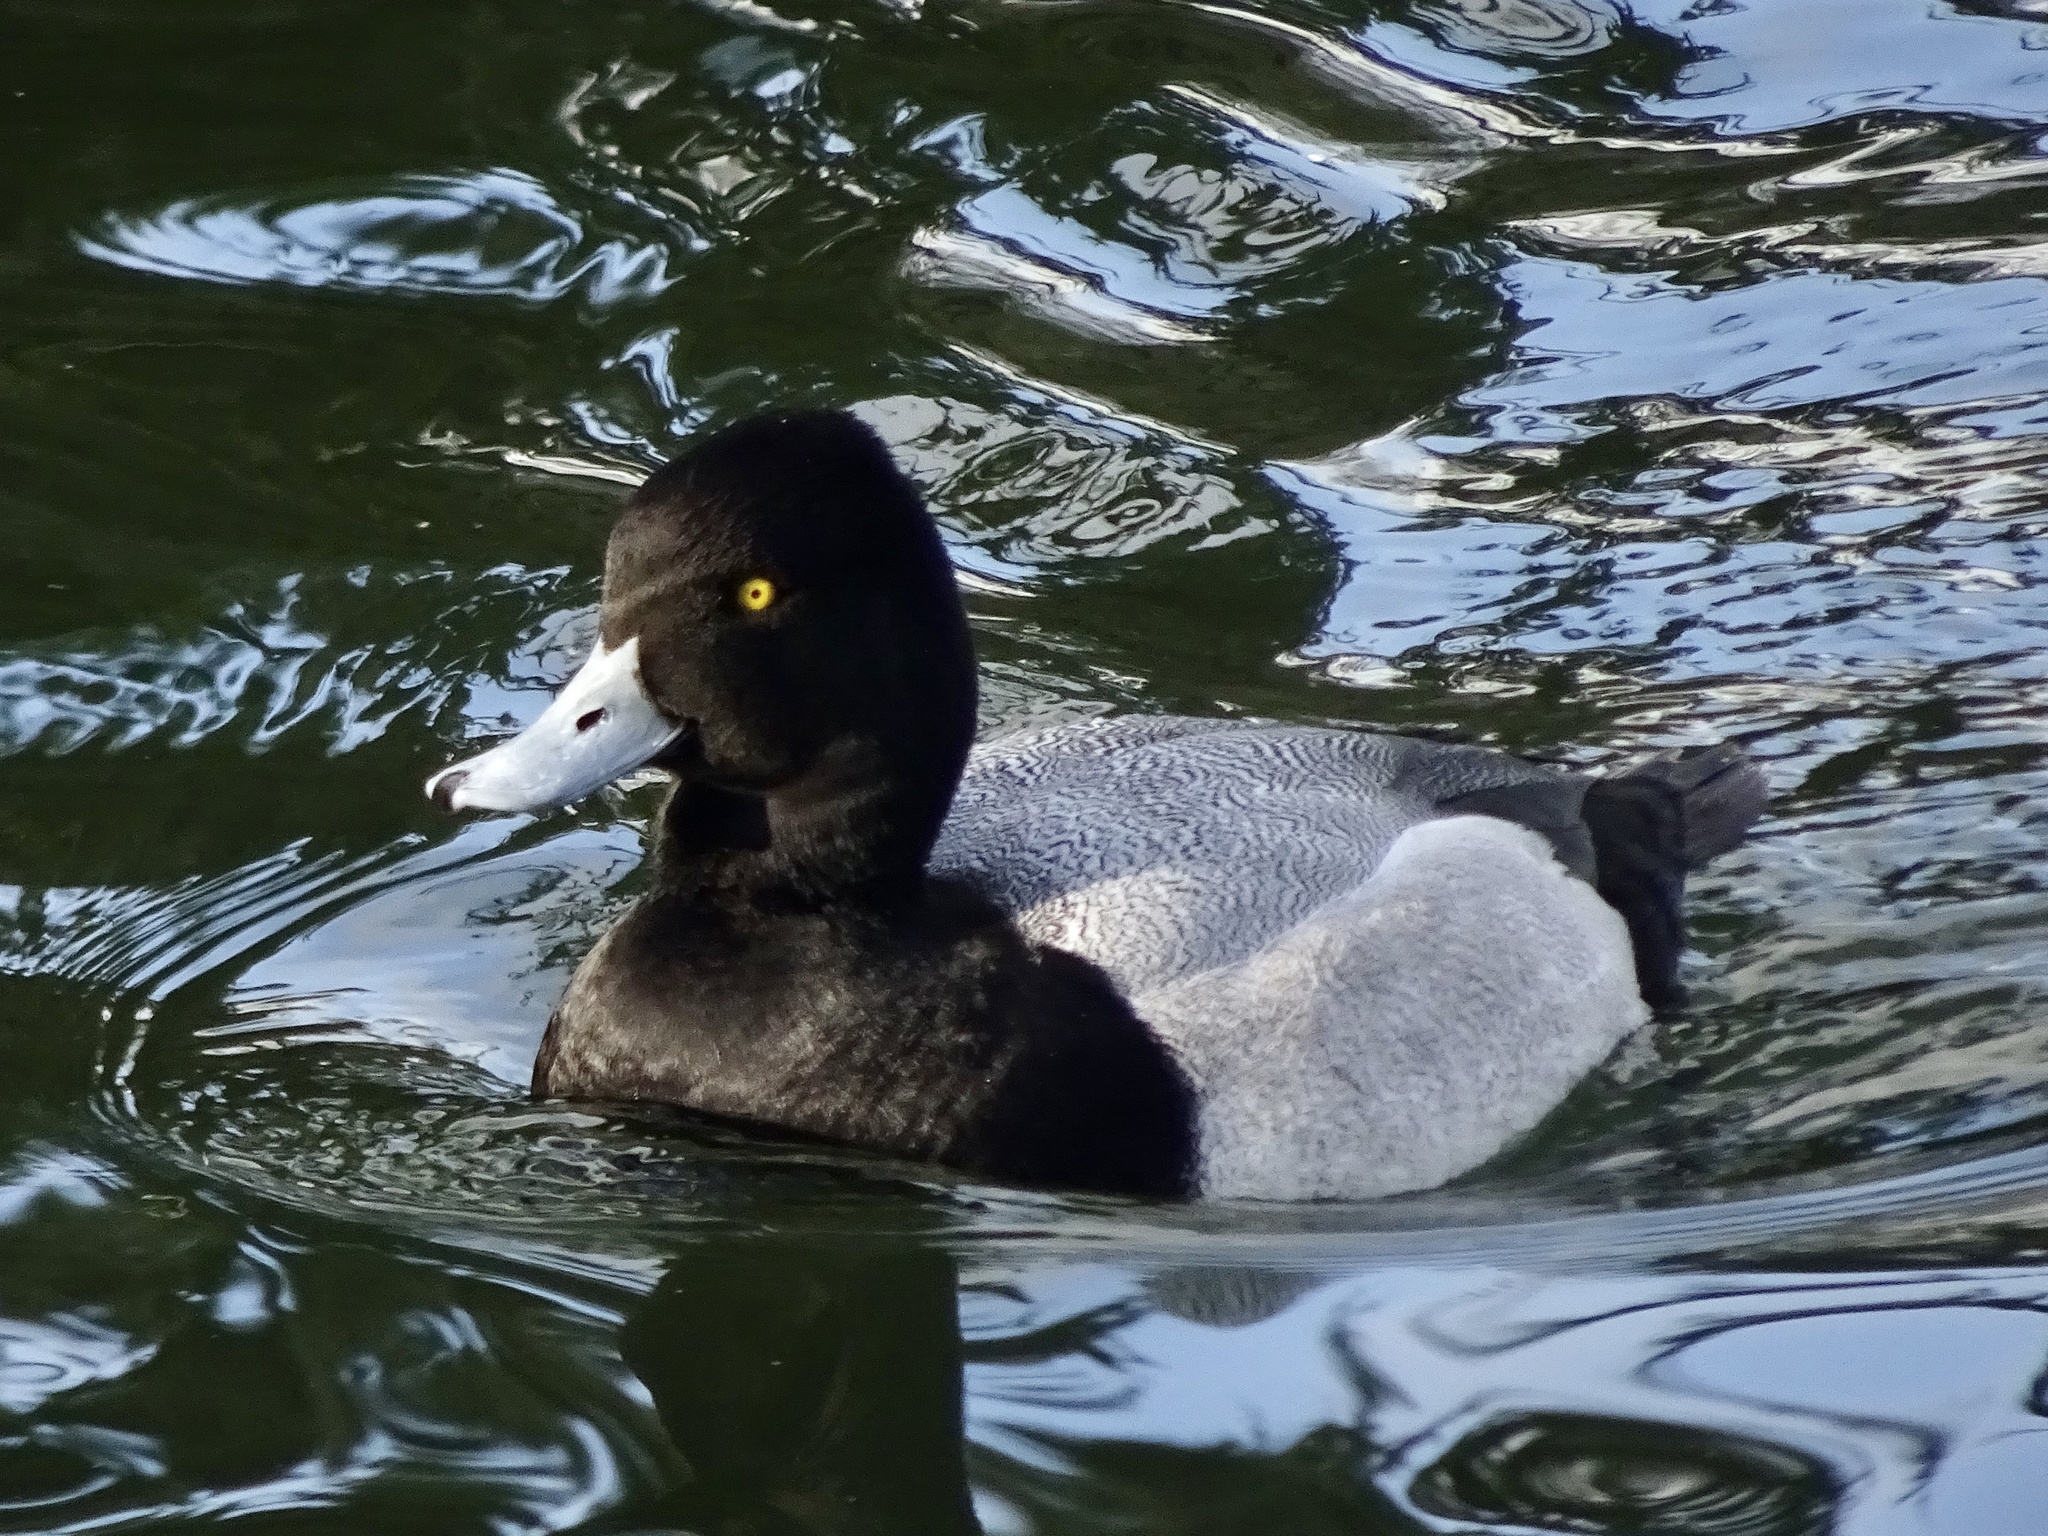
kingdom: Animalia
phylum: Chordata
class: Aves
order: Anseriformes
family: Anatidae
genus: Aythya
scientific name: Aythya affinis
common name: Lesser scaup
